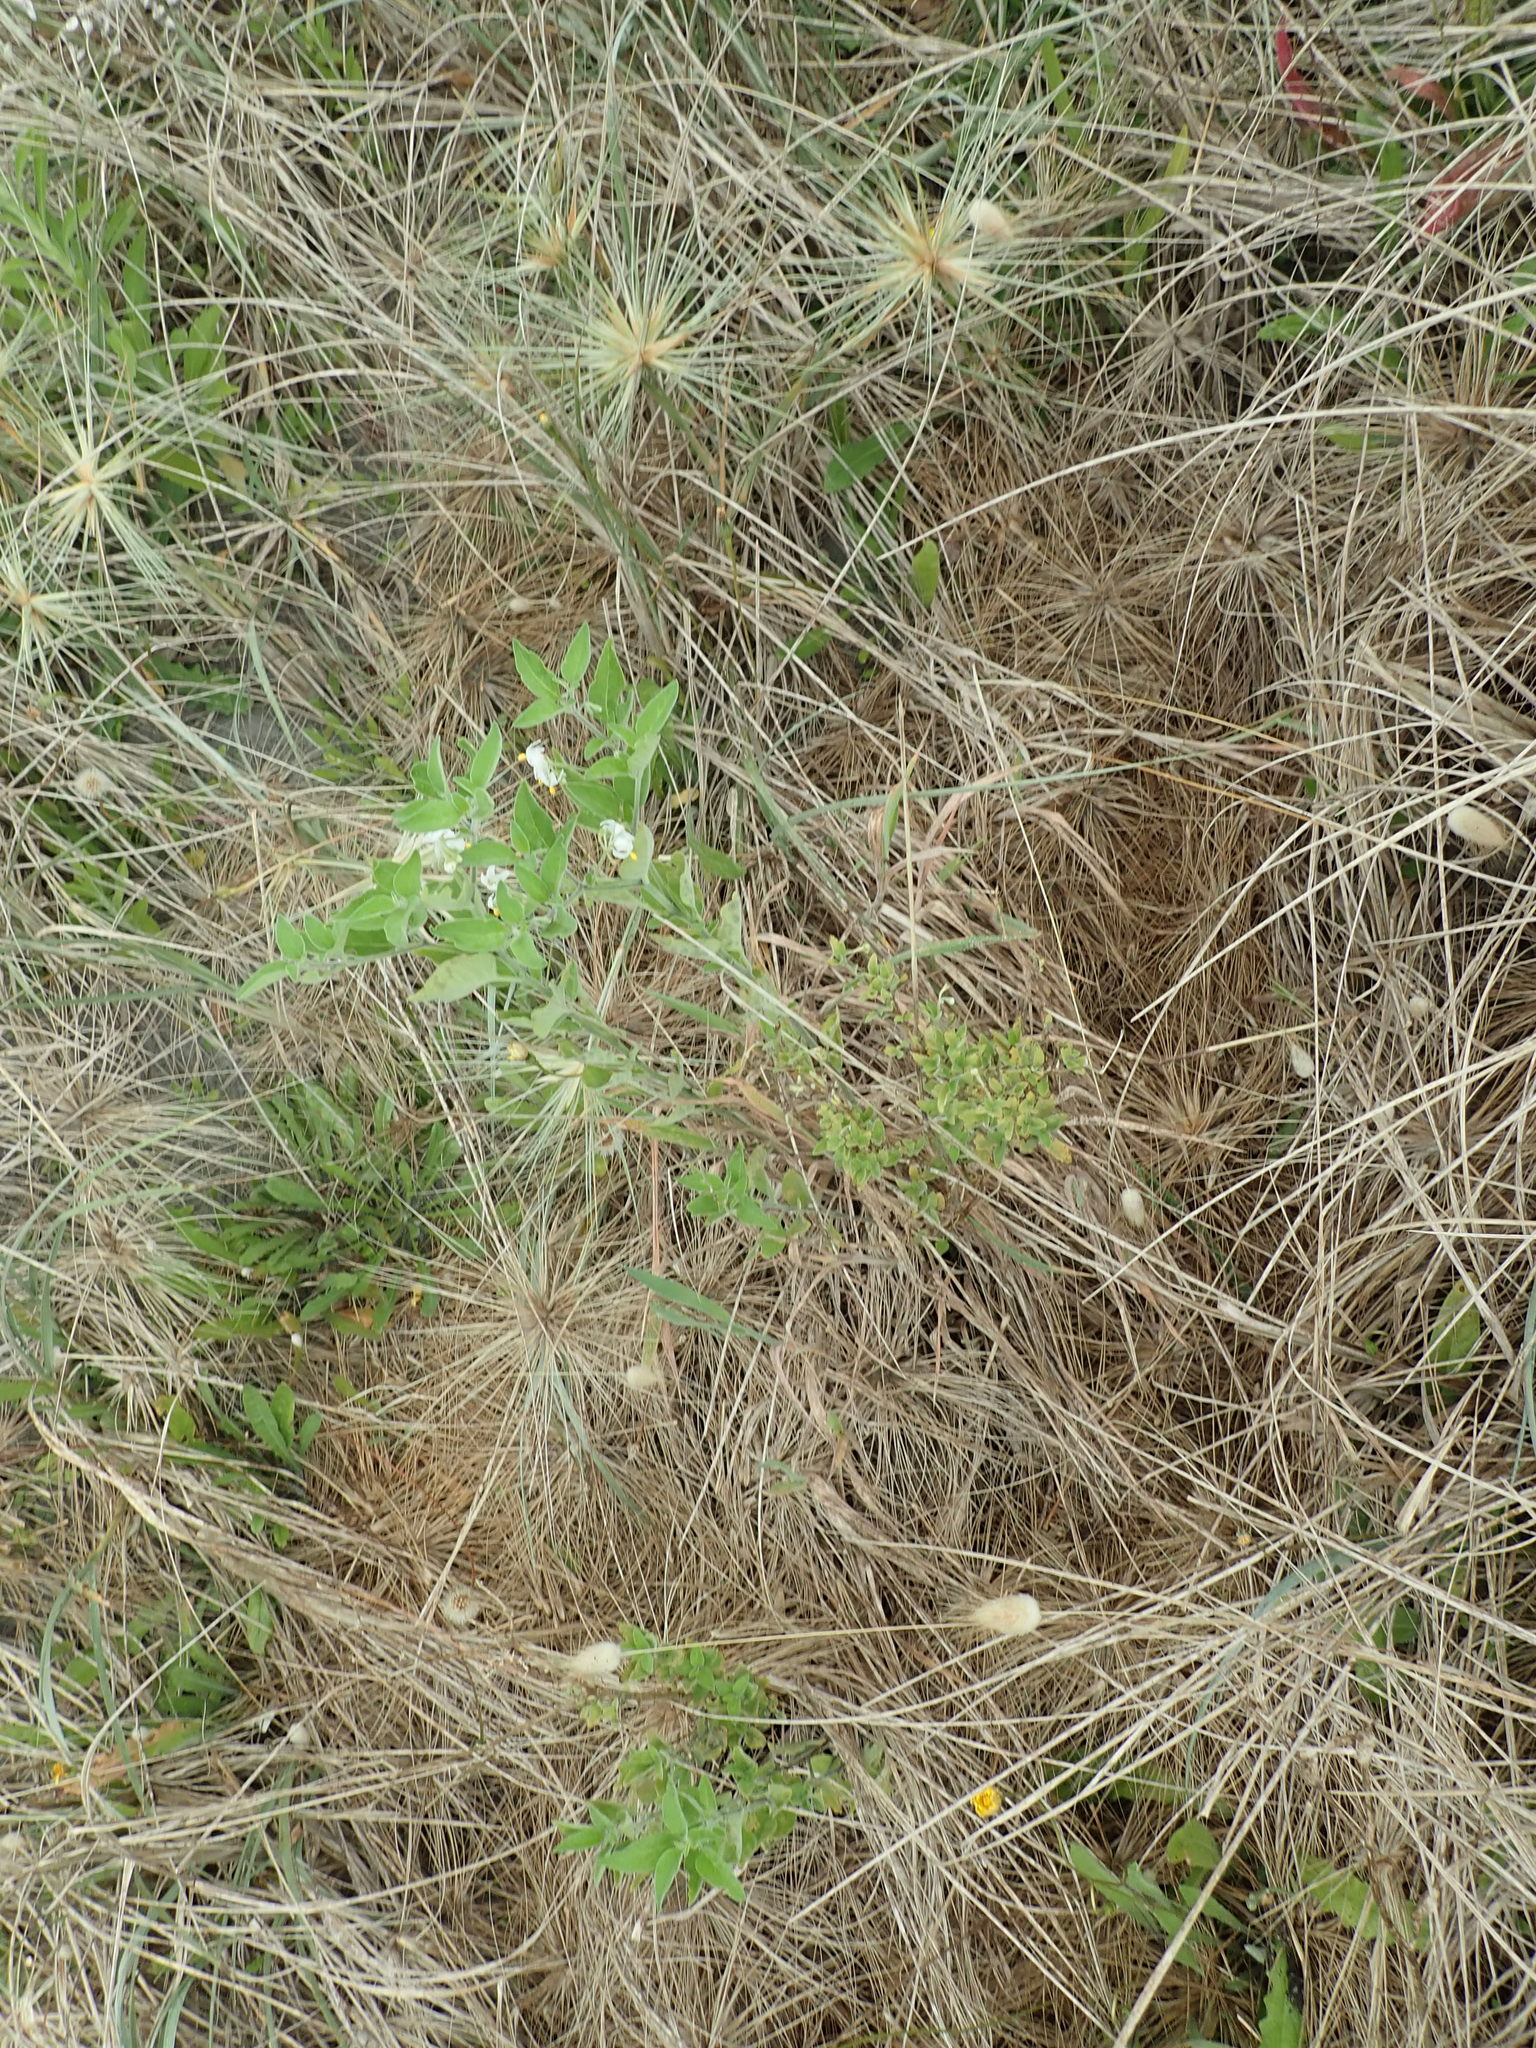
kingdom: Plantae
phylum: Tracheophyta
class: Magnoliopsida
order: Solanales
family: Solanaceae
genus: Solanum
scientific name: Solanum chenopodioides
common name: Tall nightshade
